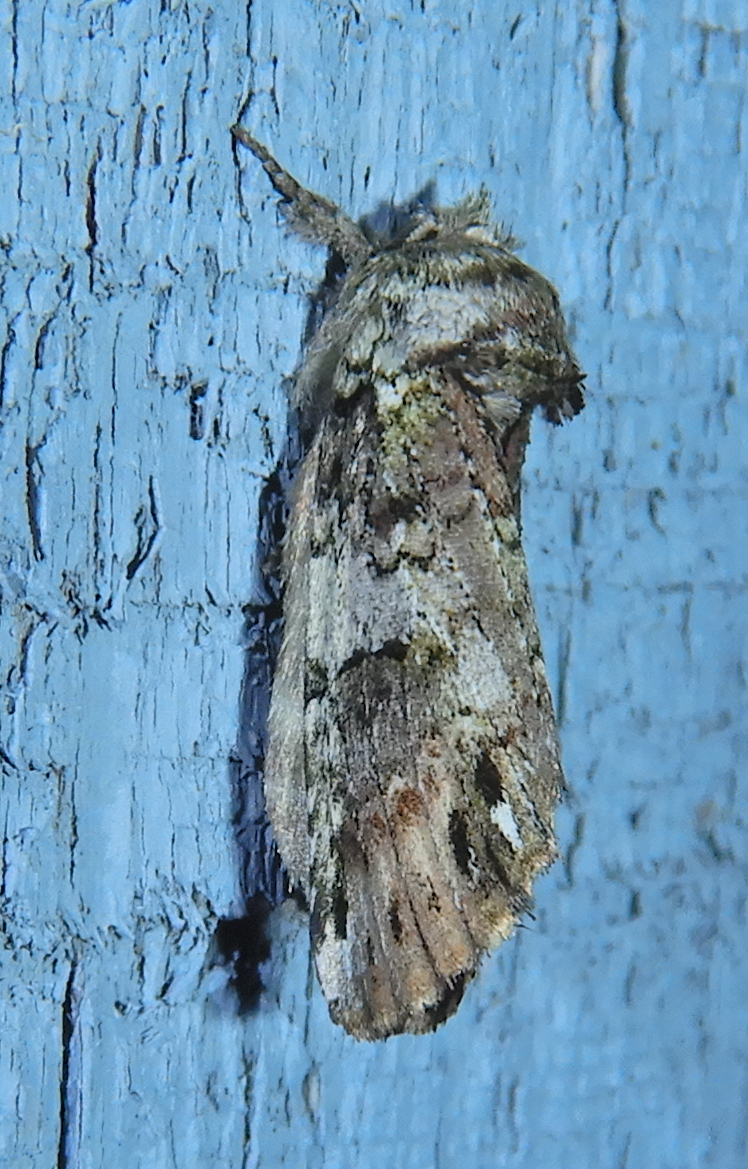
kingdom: Animalia
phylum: Arthropoda
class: Insecta
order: Lepidoptera
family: Notodontidae
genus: Schizura
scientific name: Schizura
